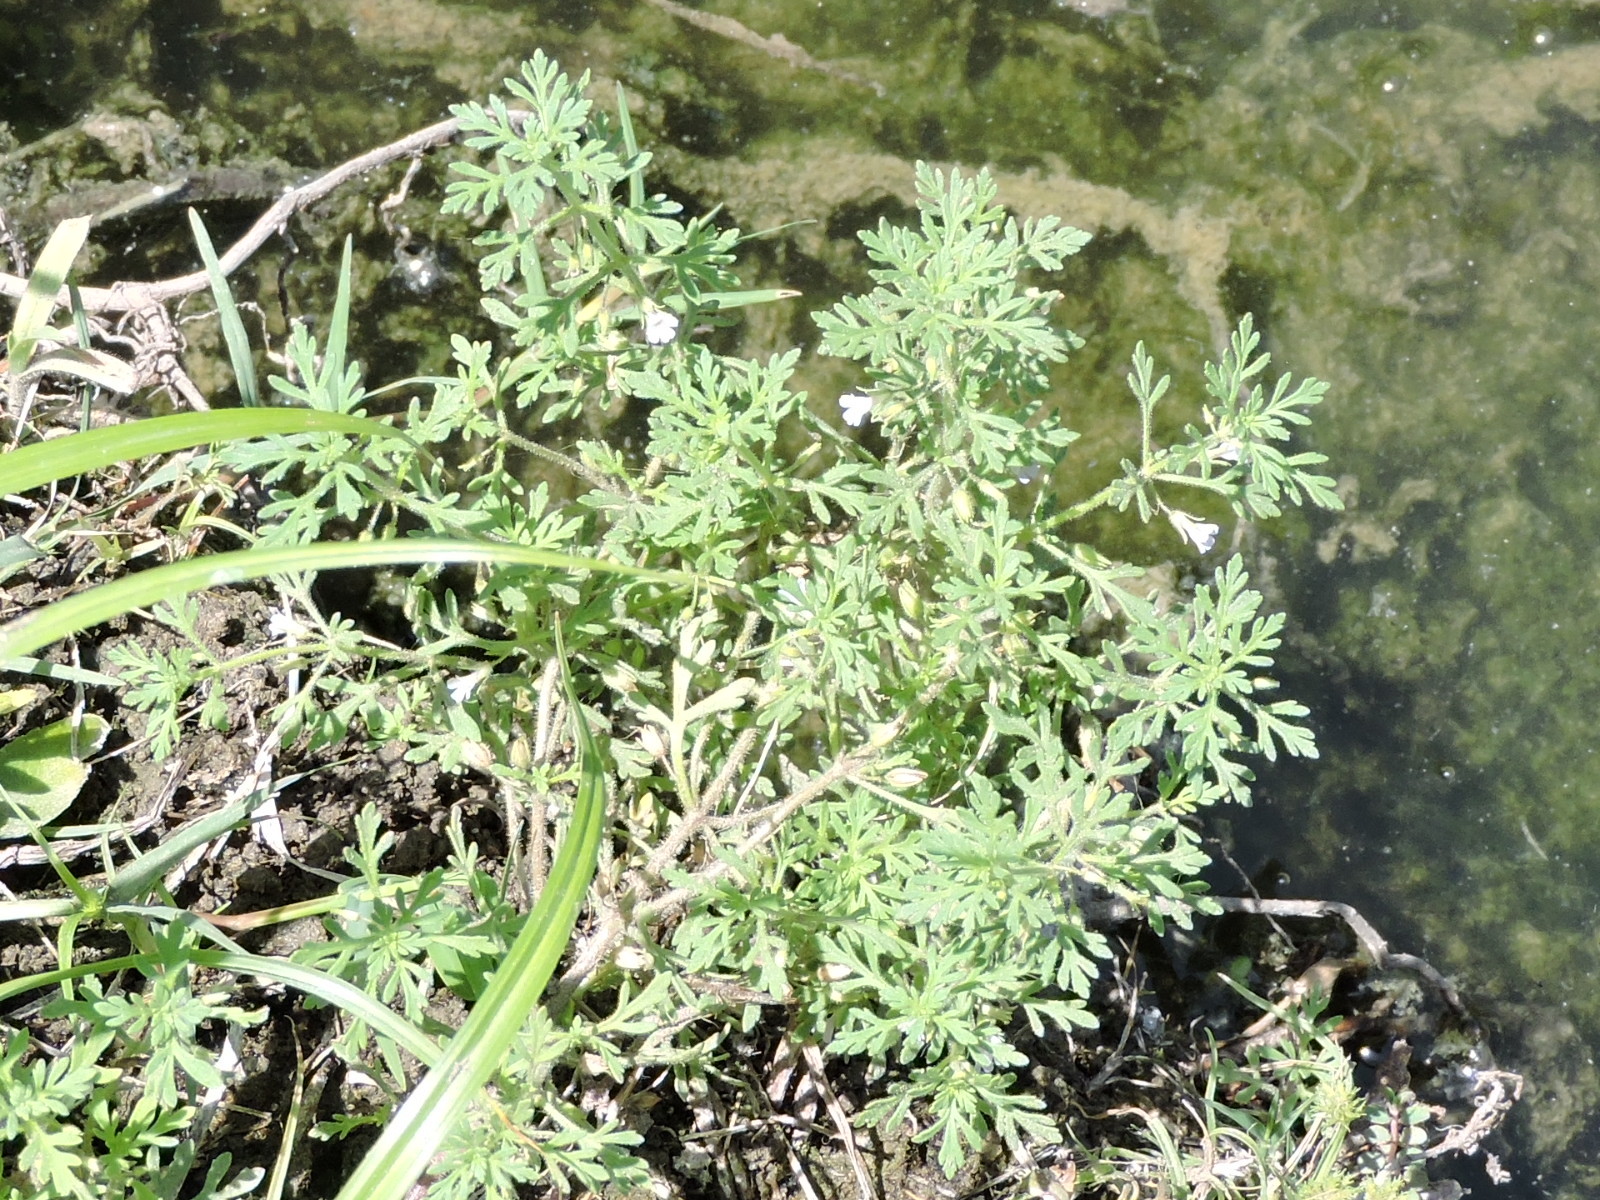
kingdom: Plantae
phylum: Tracheophyta
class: Magnoliopsida
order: Lamiales
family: Plantaginaceae
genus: Leucospora
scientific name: Leucospora multifida
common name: Narrow-leaf paleseed
